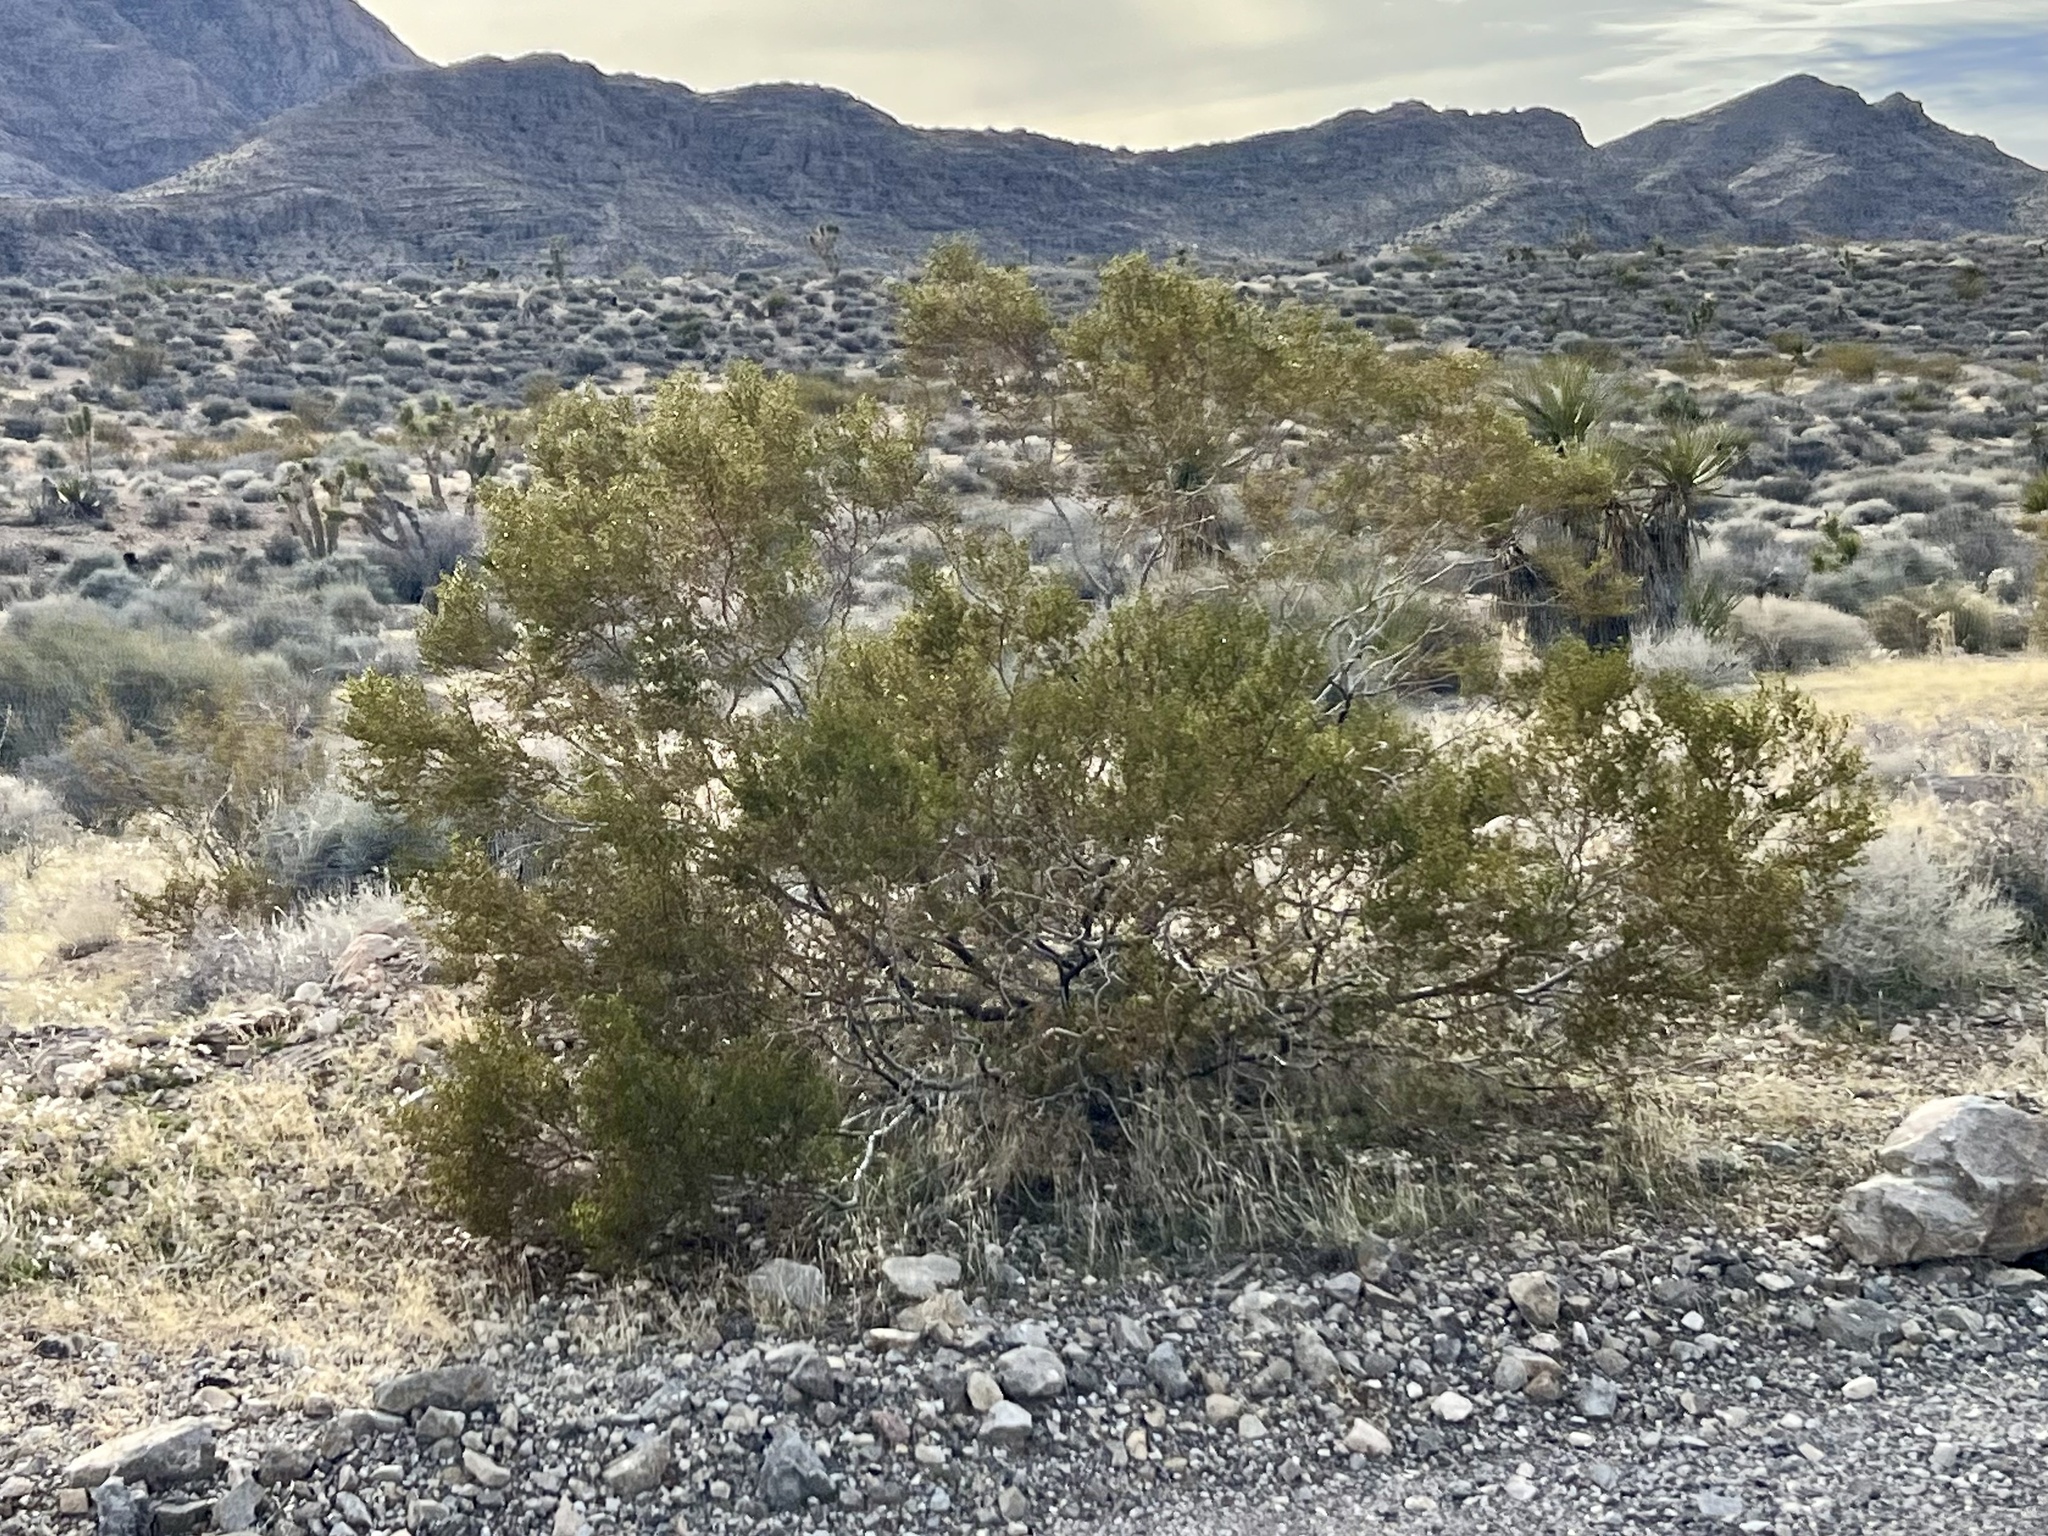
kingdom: Plantae
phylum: Tracheophyta
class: Magnoliopsida
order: Zygophyllales
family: Zygophyllaceae
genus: Larrea
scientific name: Larrea tridentata
